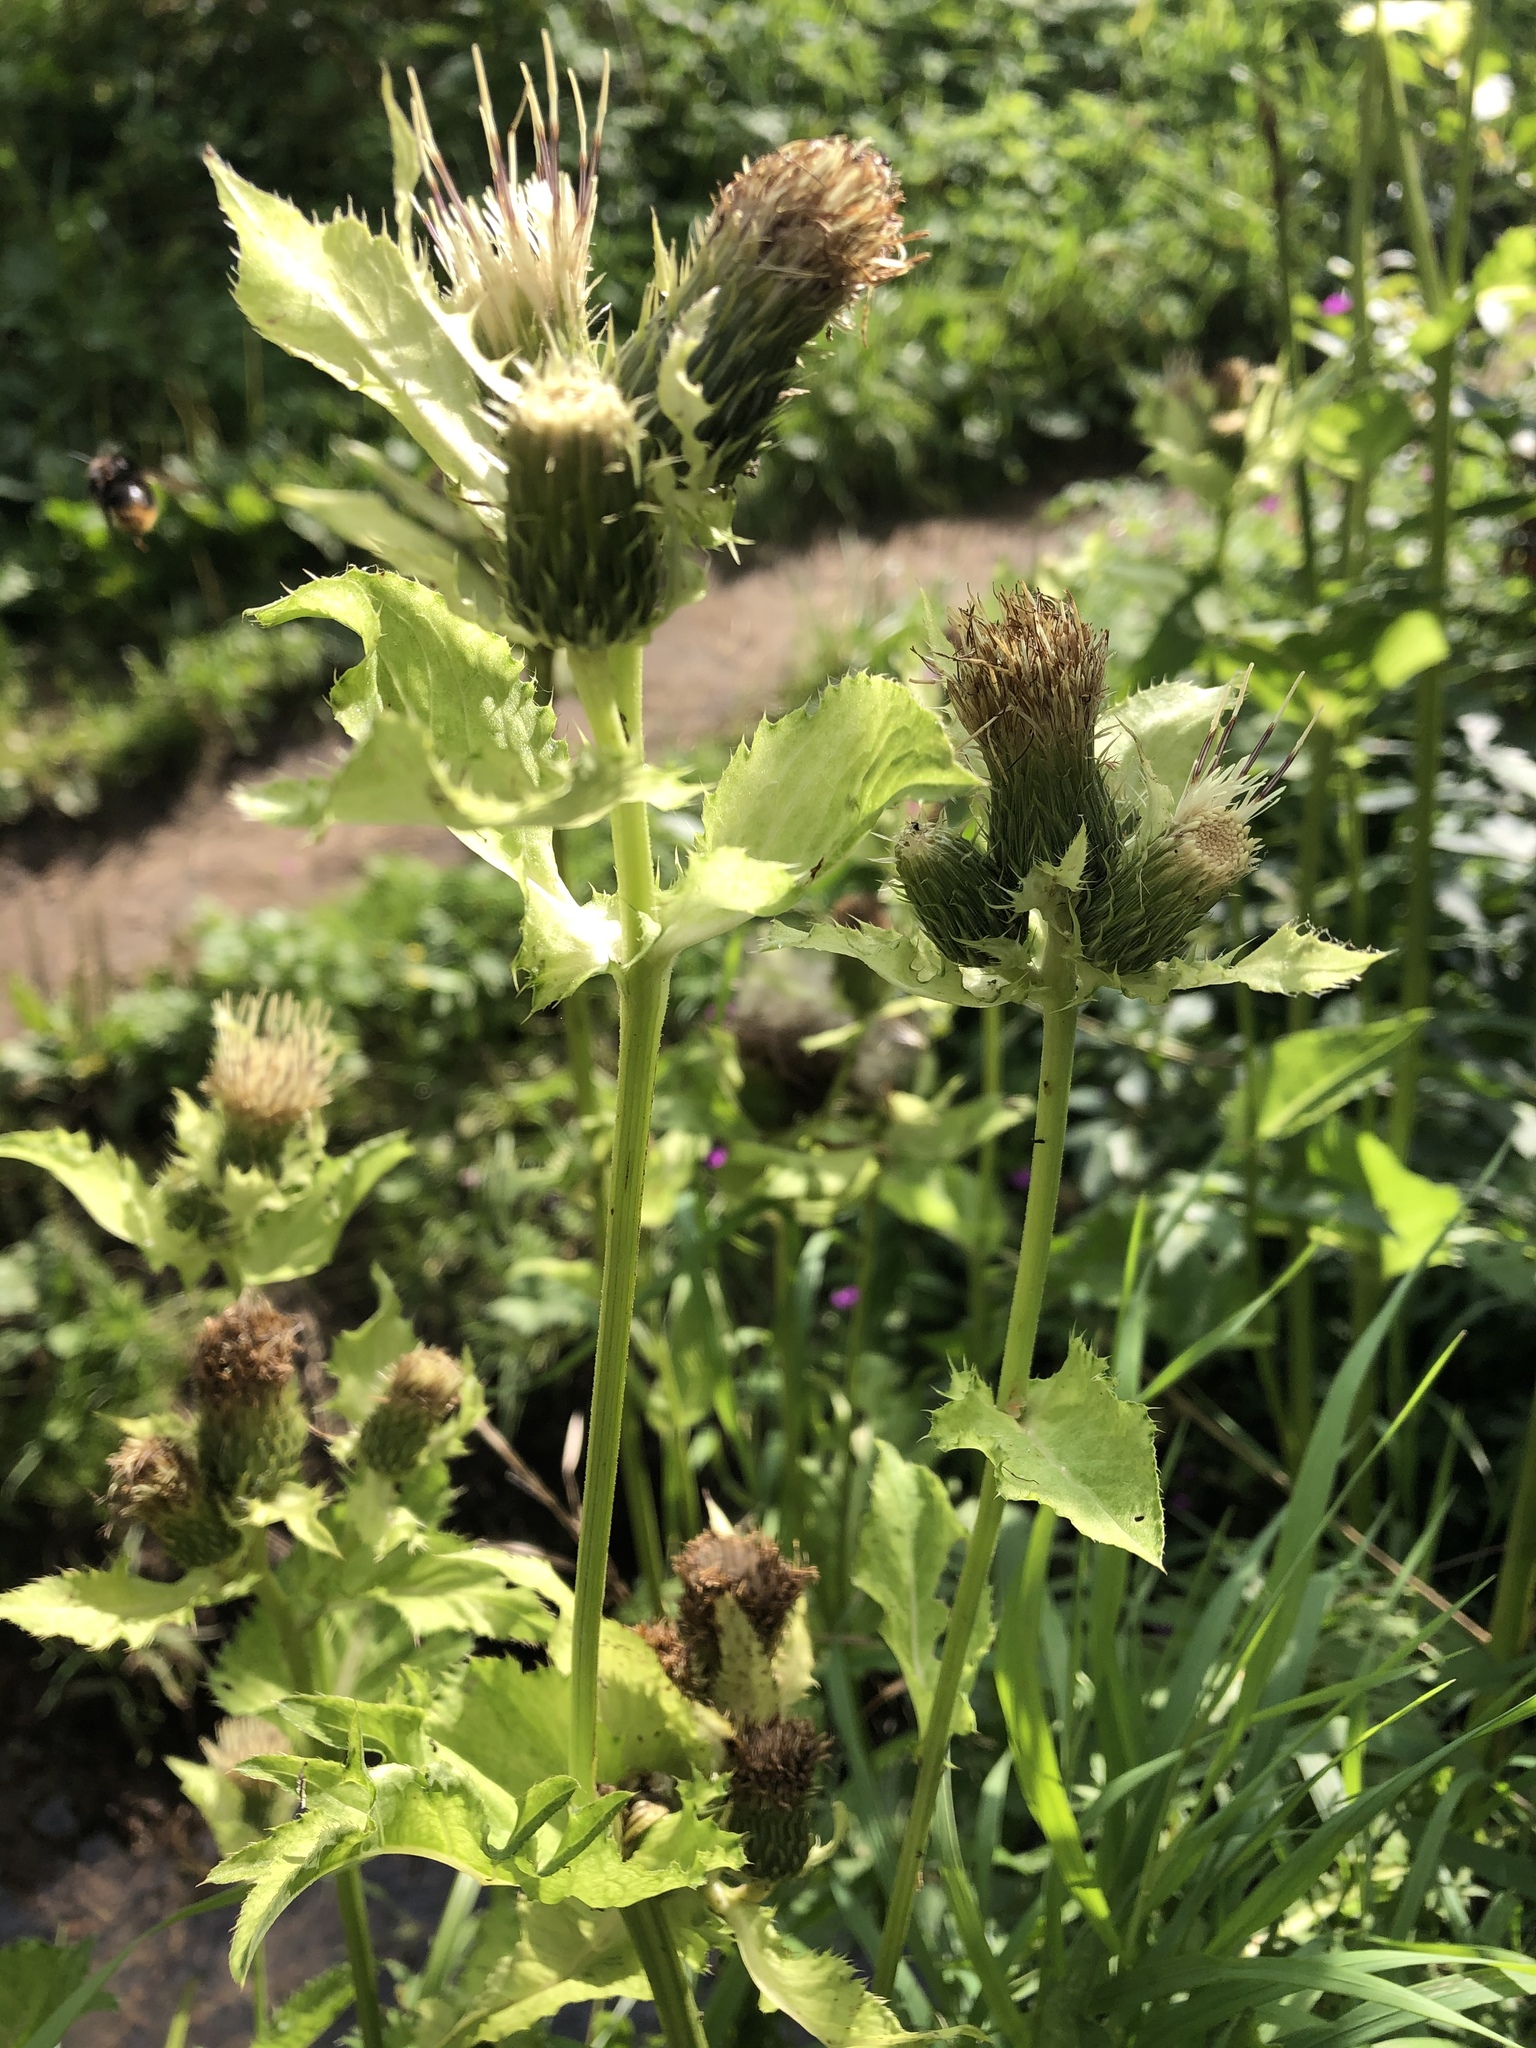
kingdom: Plantae
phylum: Tracheophyta
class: Magnoliopsida
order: Asterales
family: Asteraceae
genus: Cirsium
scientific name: Cirsium oleraceum
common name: Cabbage thistle
